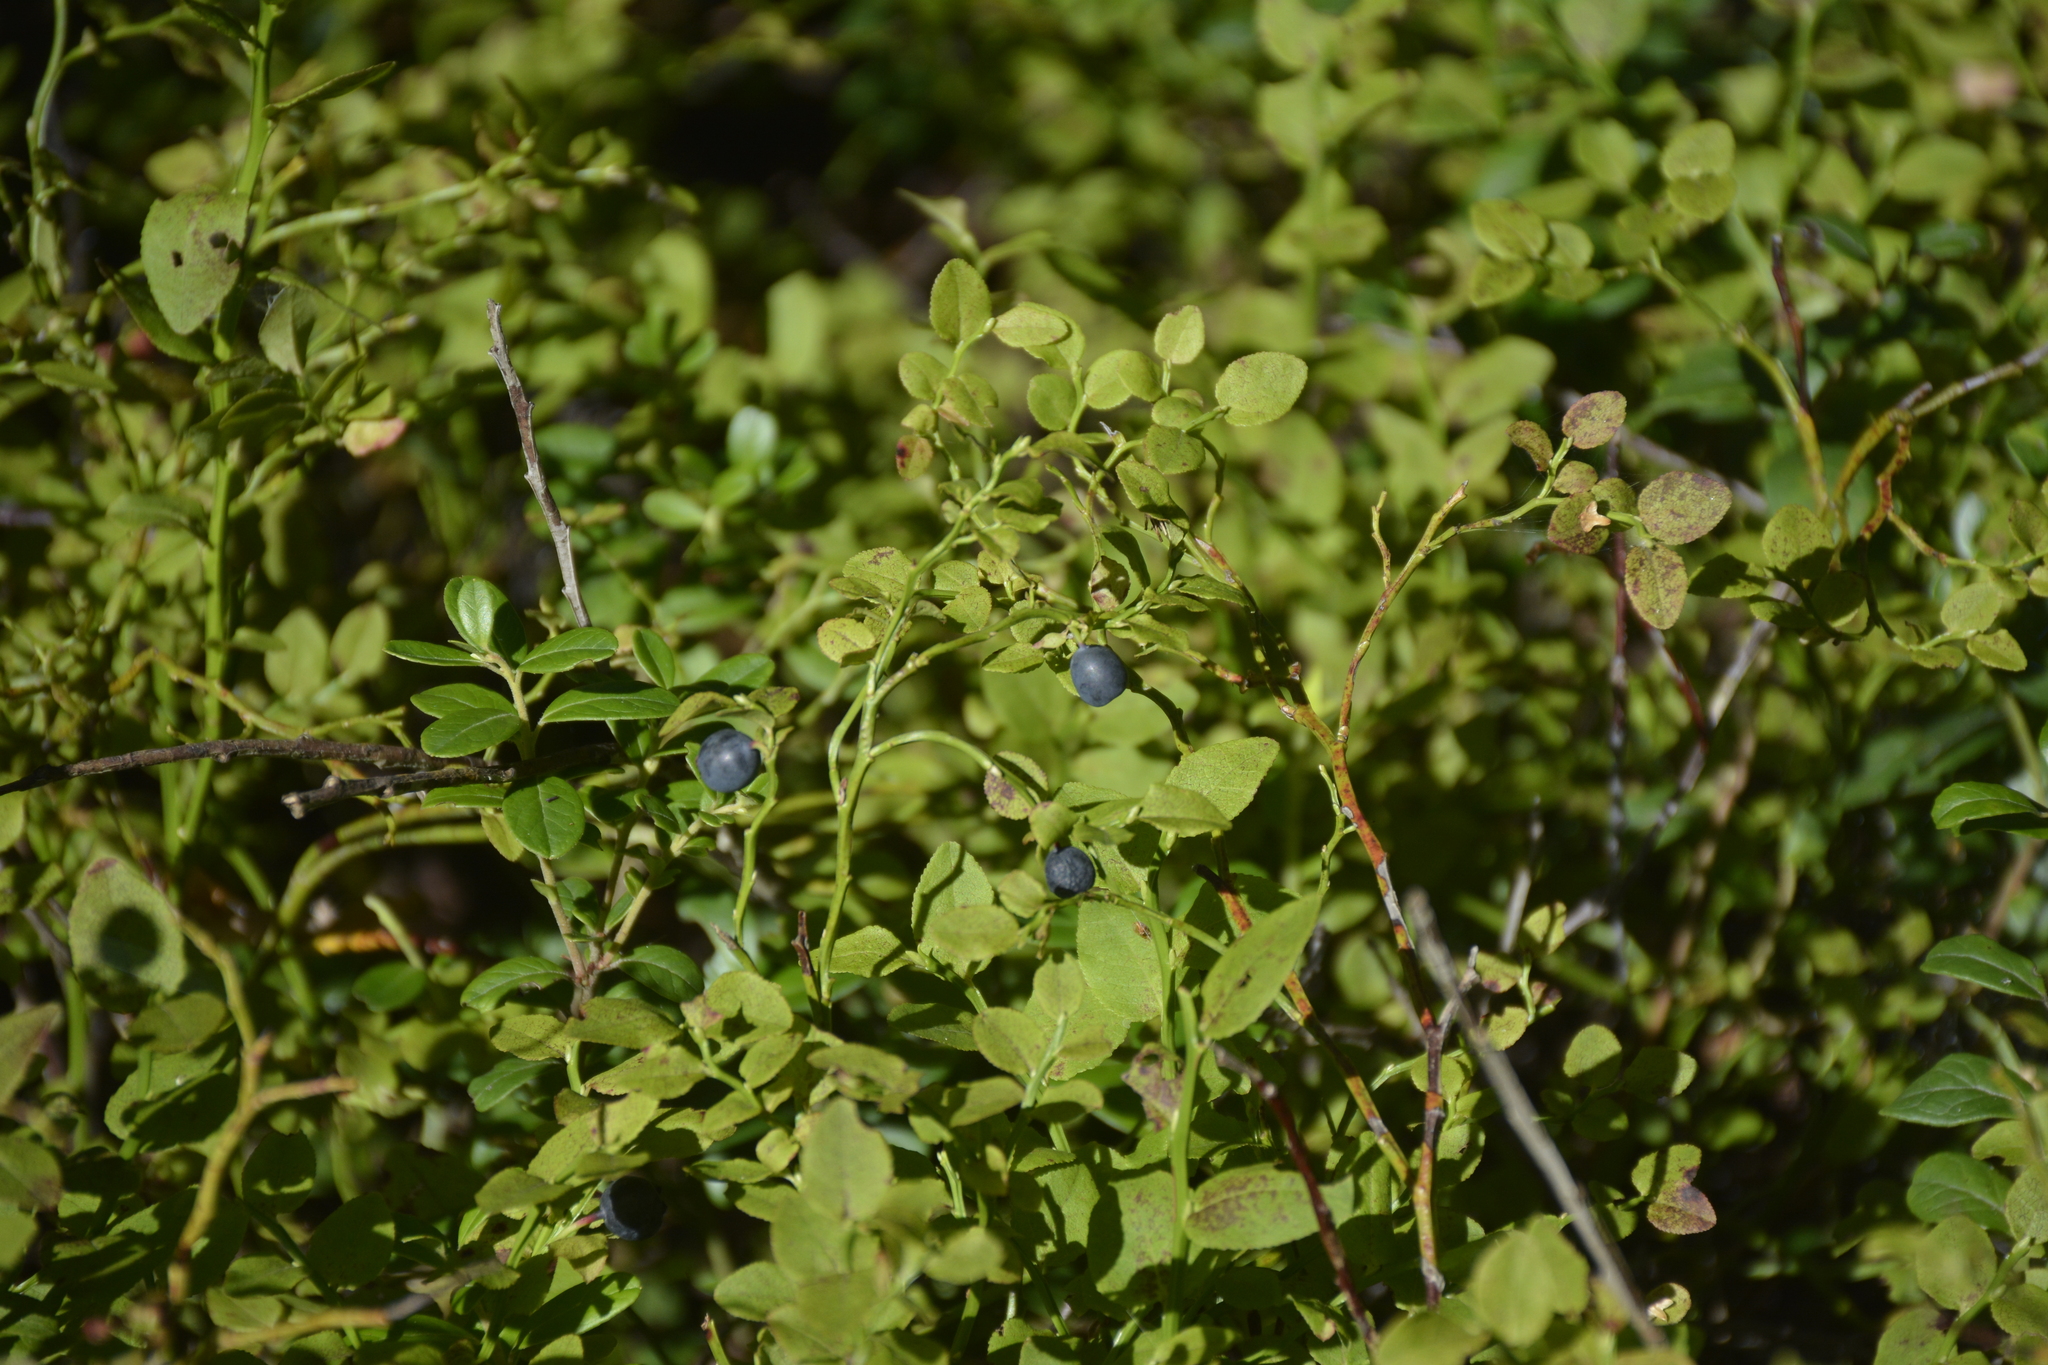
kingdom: Plantae
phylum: Tracheophyta
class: Magnoliopsida
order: Ericales
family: Ericaceae
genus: Vaccinium
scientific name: Vaccinium myrtillus
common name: Bilberry
